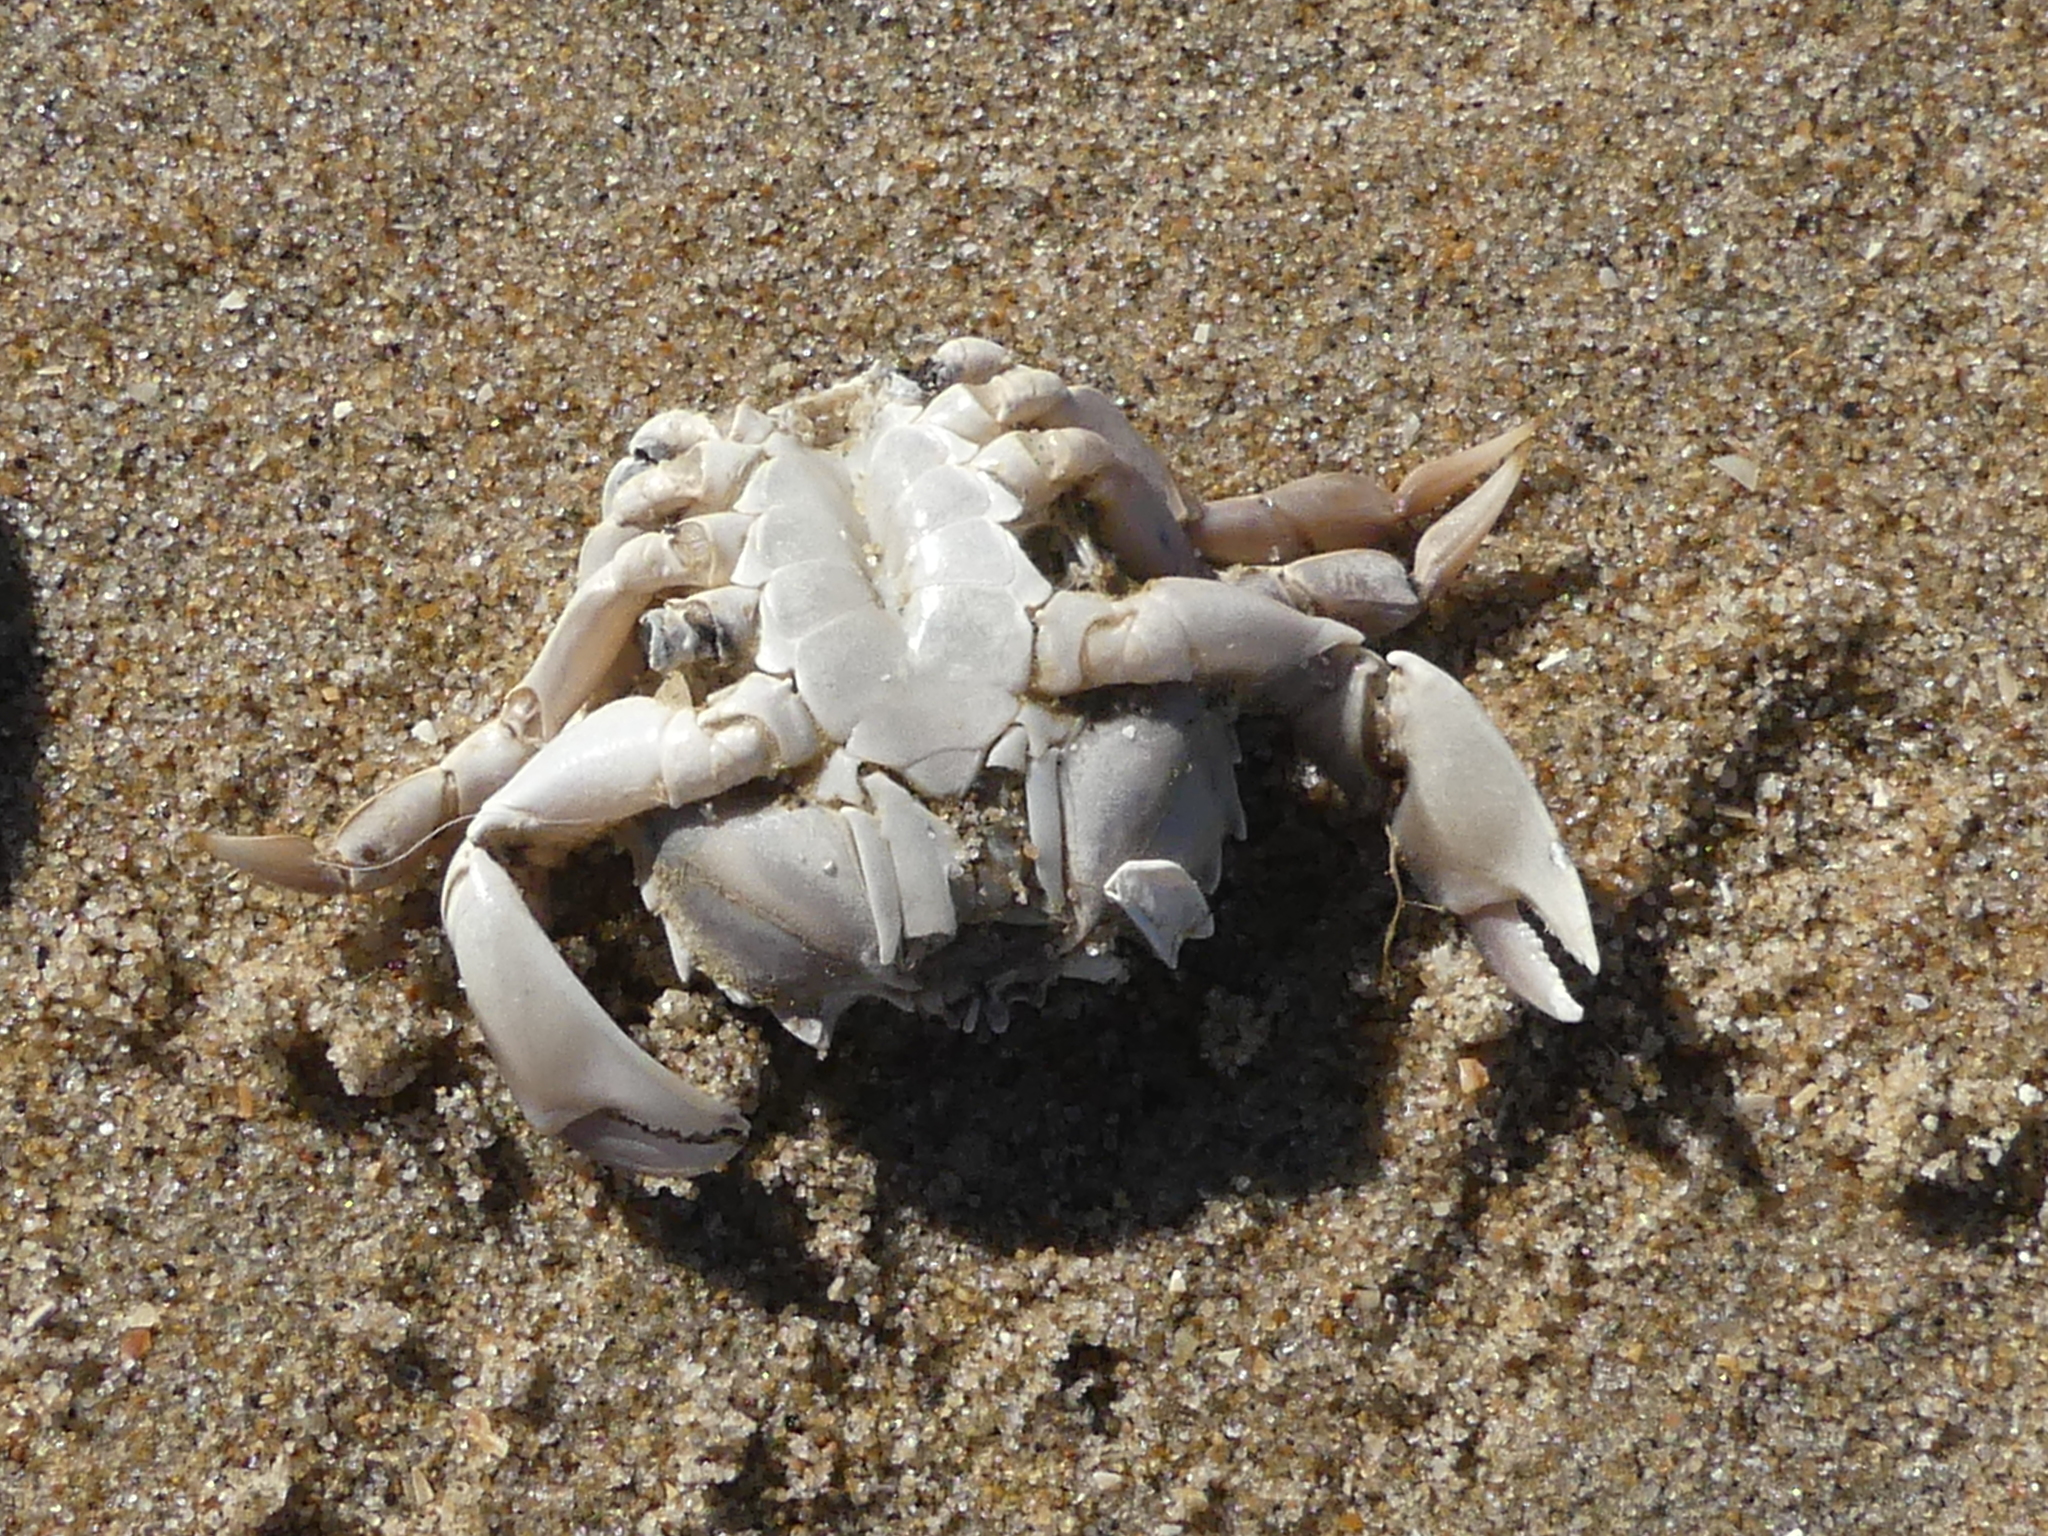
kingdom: Animalia
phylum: Arthropoda
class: Malacostraca
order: Decapoda
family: Carcinidae
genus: Portumnus
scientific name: Portumnus latipes
